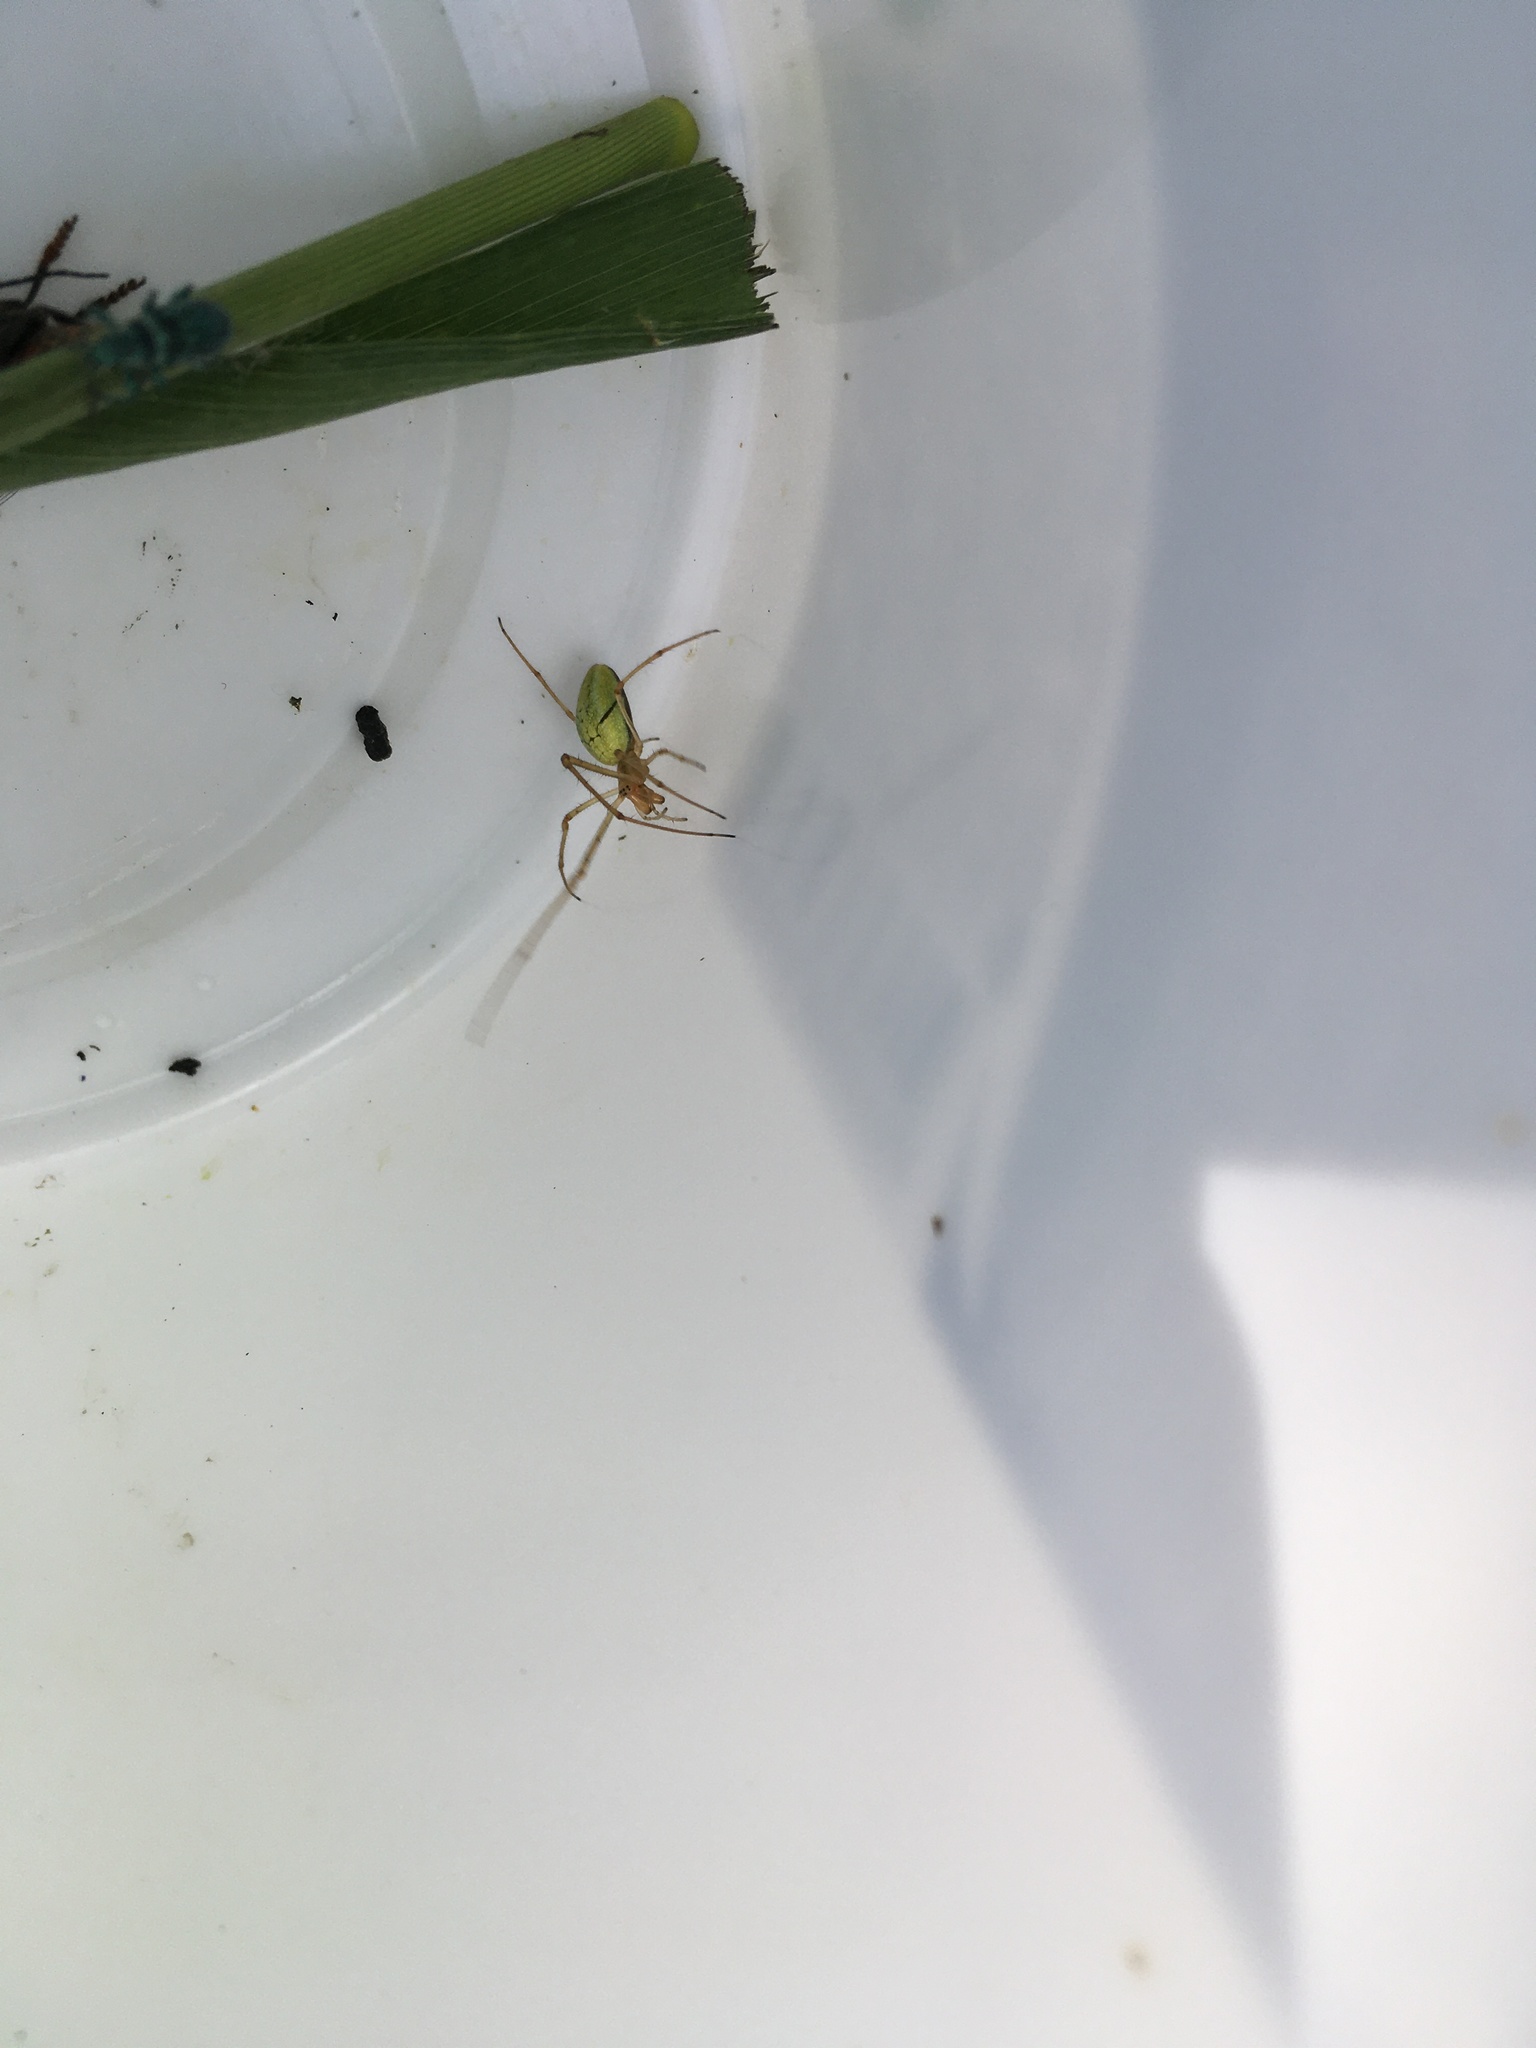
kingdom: Animalia
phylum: Arthropoda
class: Arachnida
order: Araneae
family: Tetragnathidae
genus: Tetragnatha
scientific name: Tetragnatha
